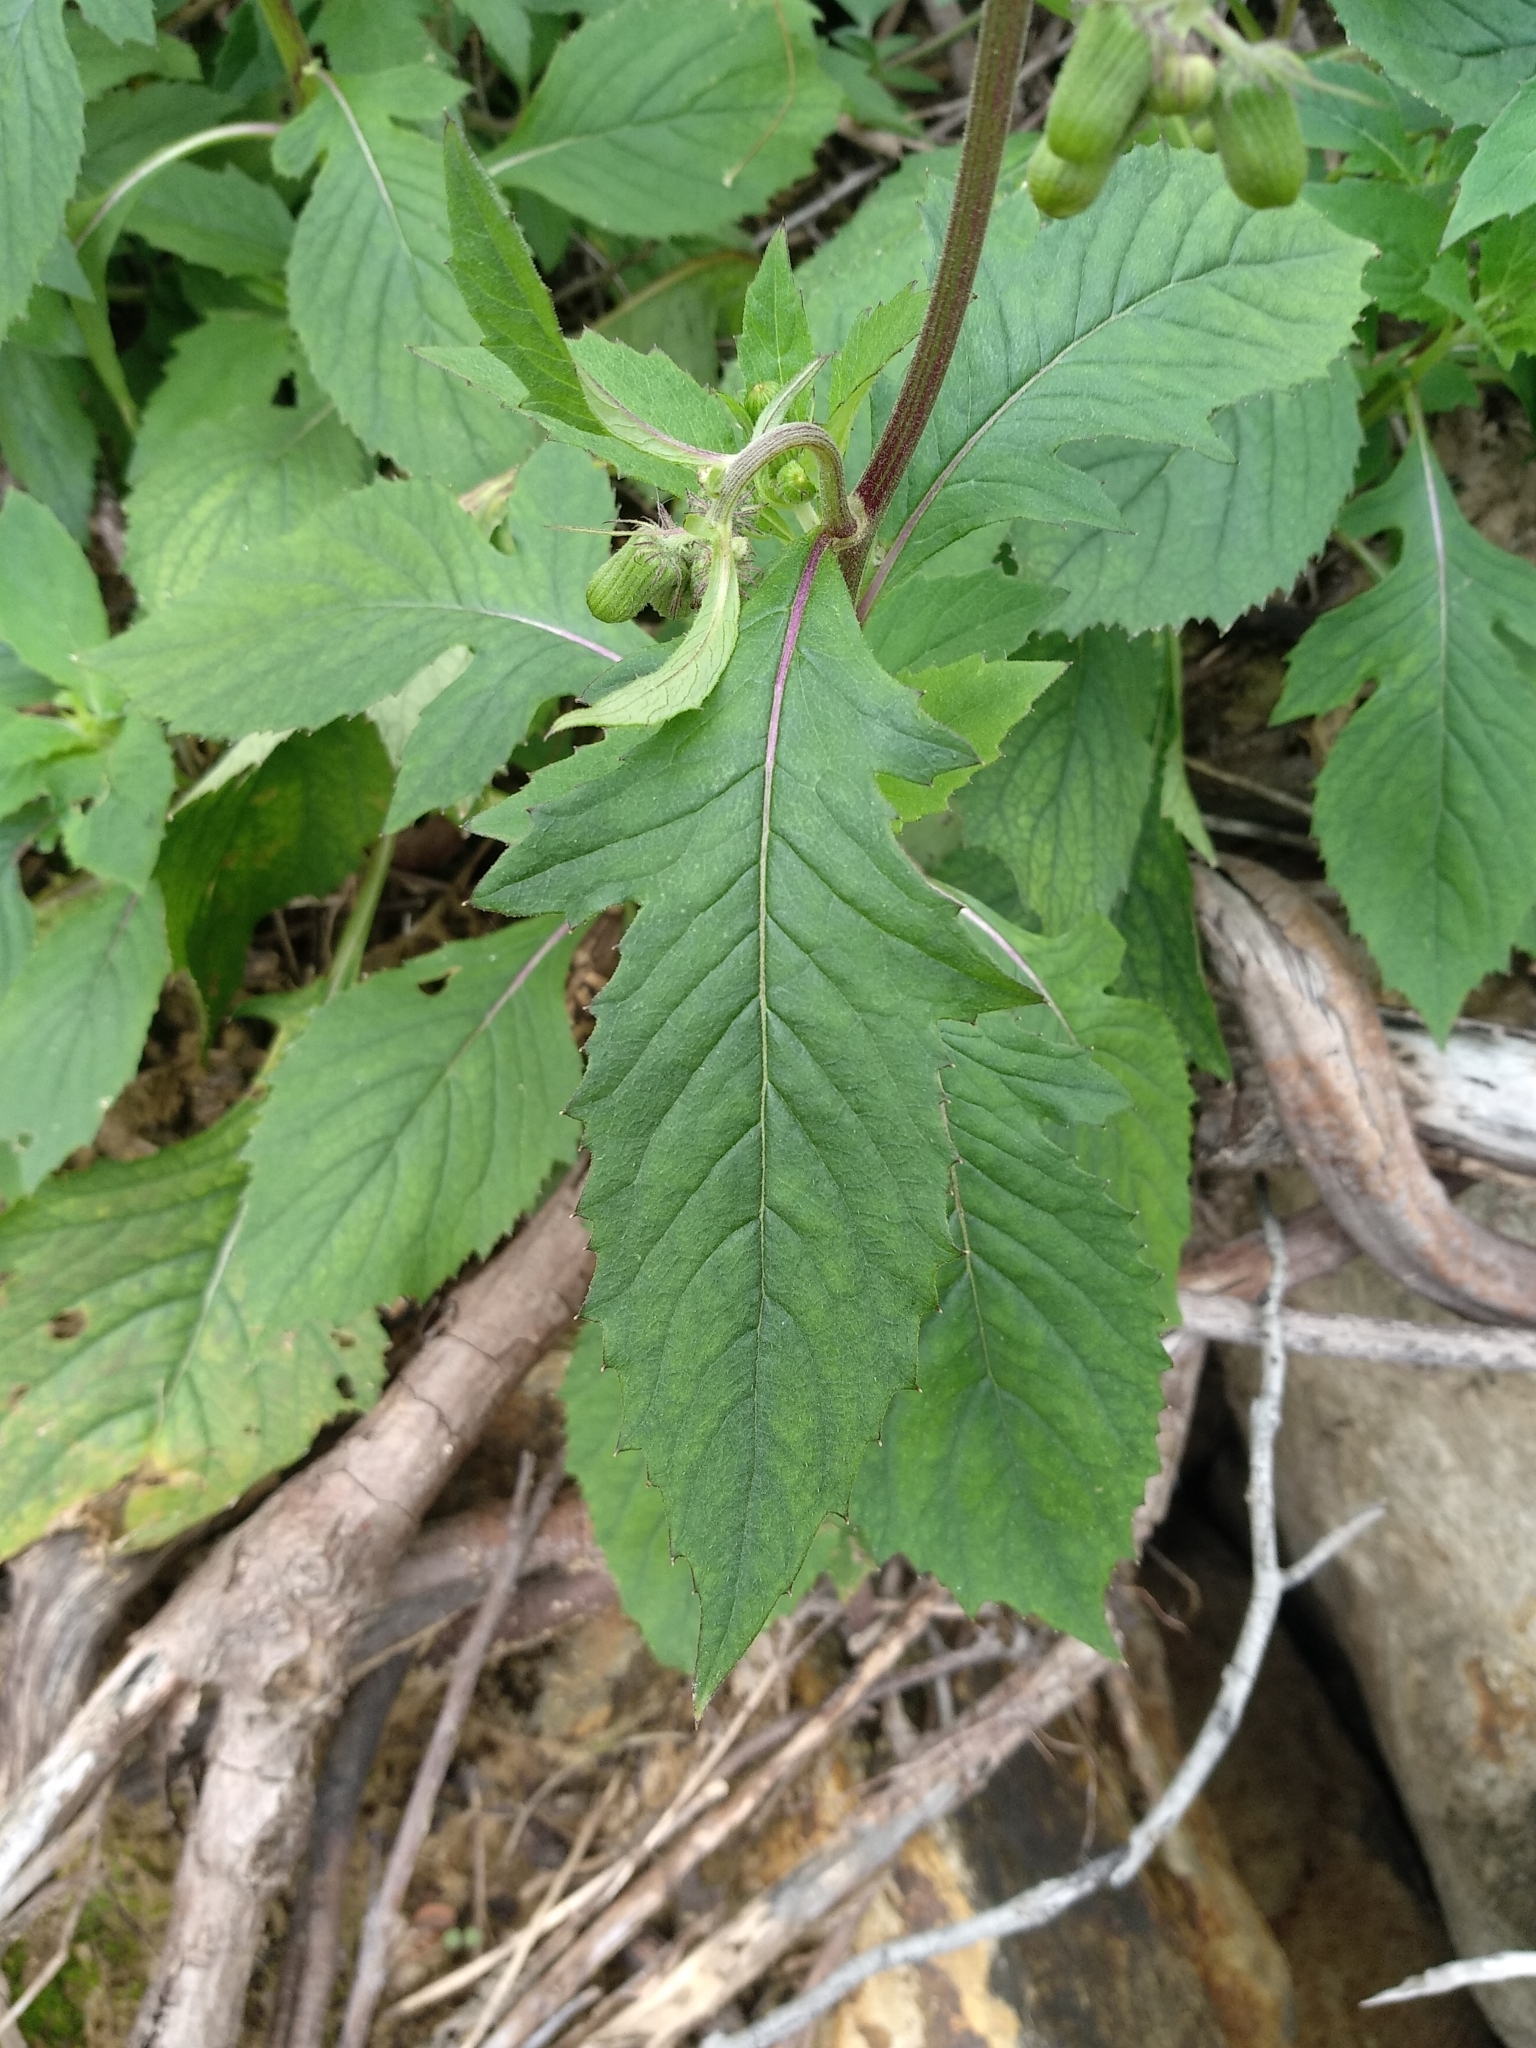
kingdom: Plantae
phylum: Tracheophyta
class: Magnoliopsida
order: Asterales
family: Asteraceae
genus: Crassocephalum
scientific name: Crassocephalum crepidioides
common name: Redflower ragleaf
